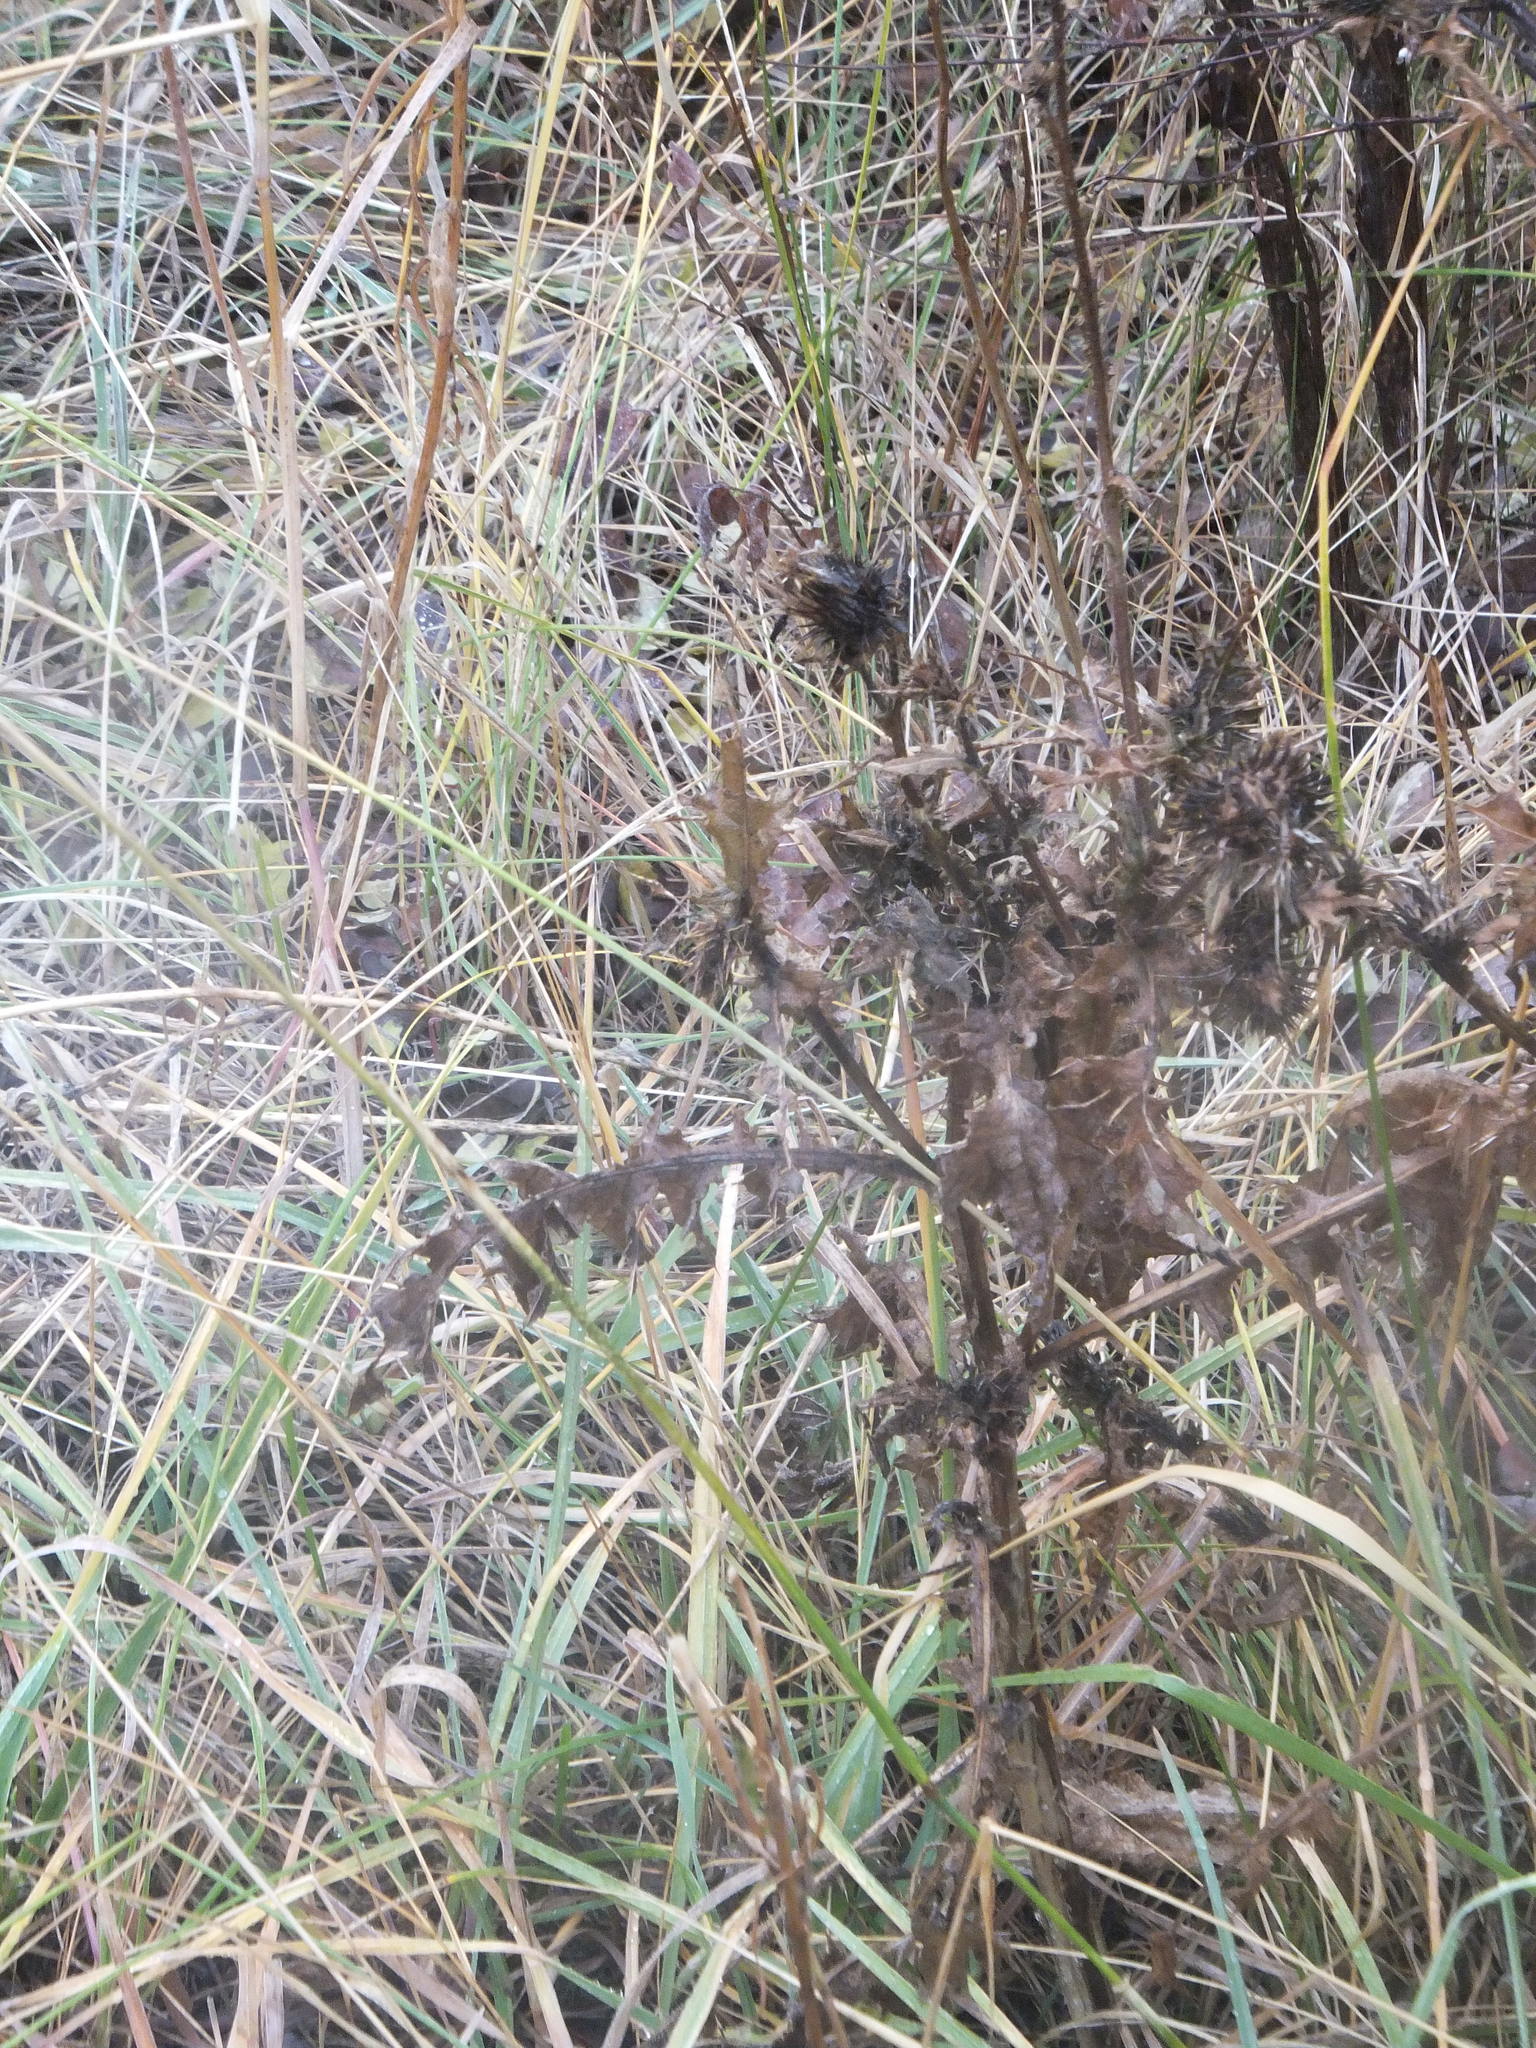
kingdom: Plantae
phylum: Tracheophyta
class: Magnoliopsida
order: Asterales
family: Asteraceae
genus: Cirsium
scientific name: Cirsium vulgare
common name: Bull thistle
